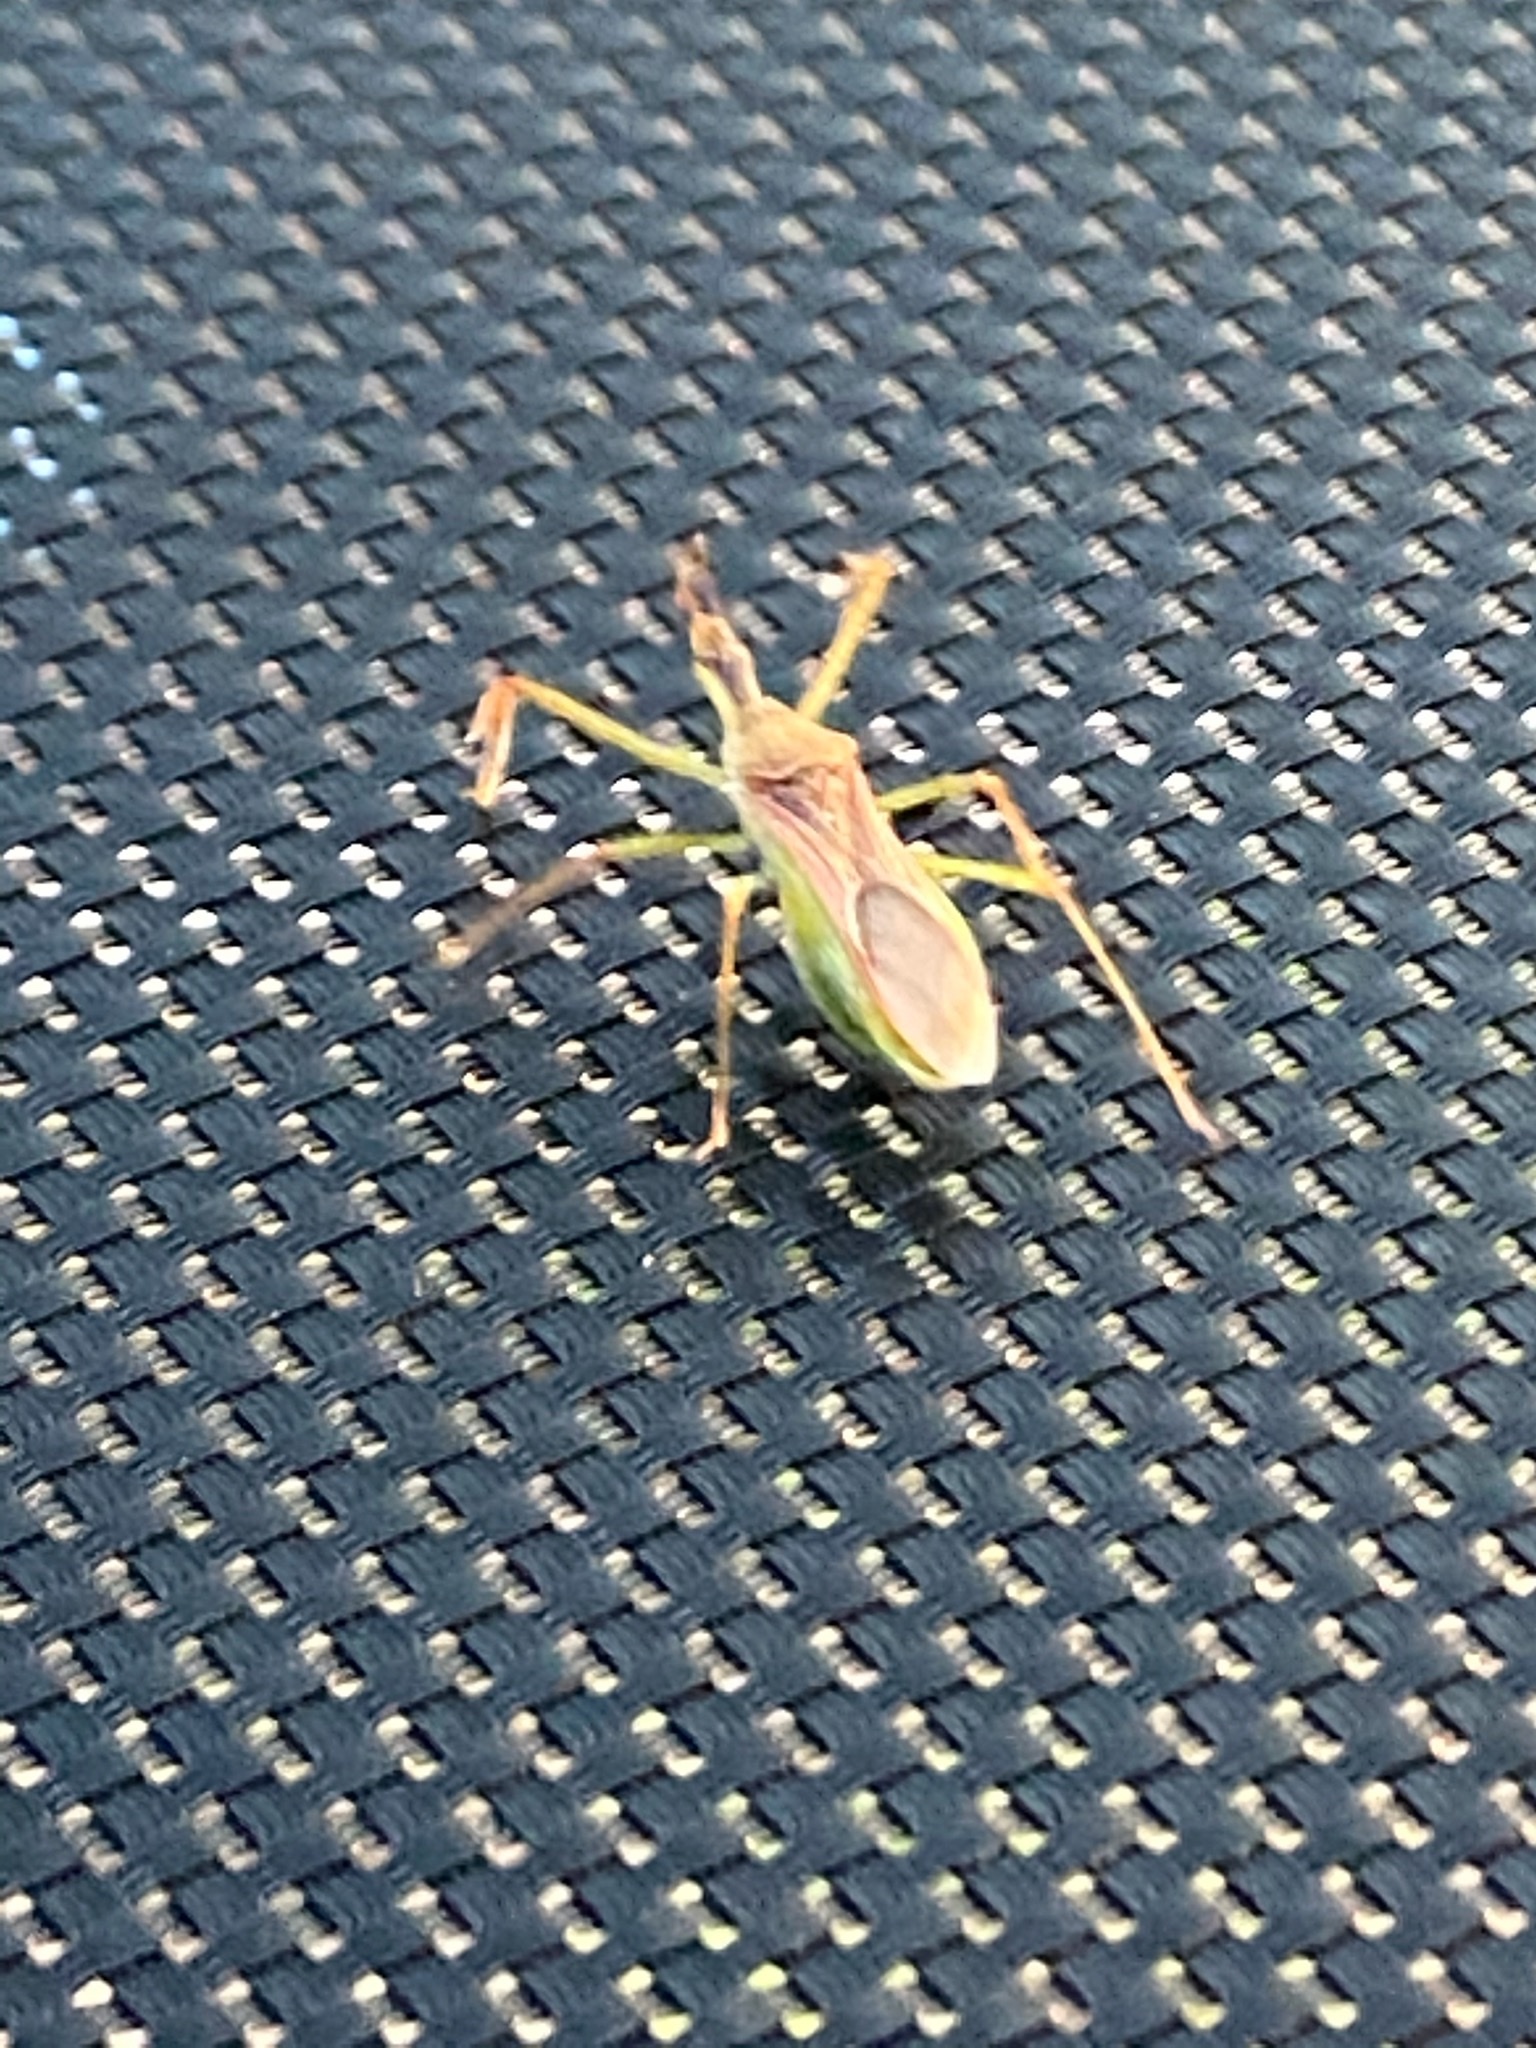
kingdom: Animalia
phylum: Arthropoda
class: Insecta
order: Hemiptera
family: Reduviidae
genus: Zelus
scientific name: Zelus renardii
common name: Assassin bug
